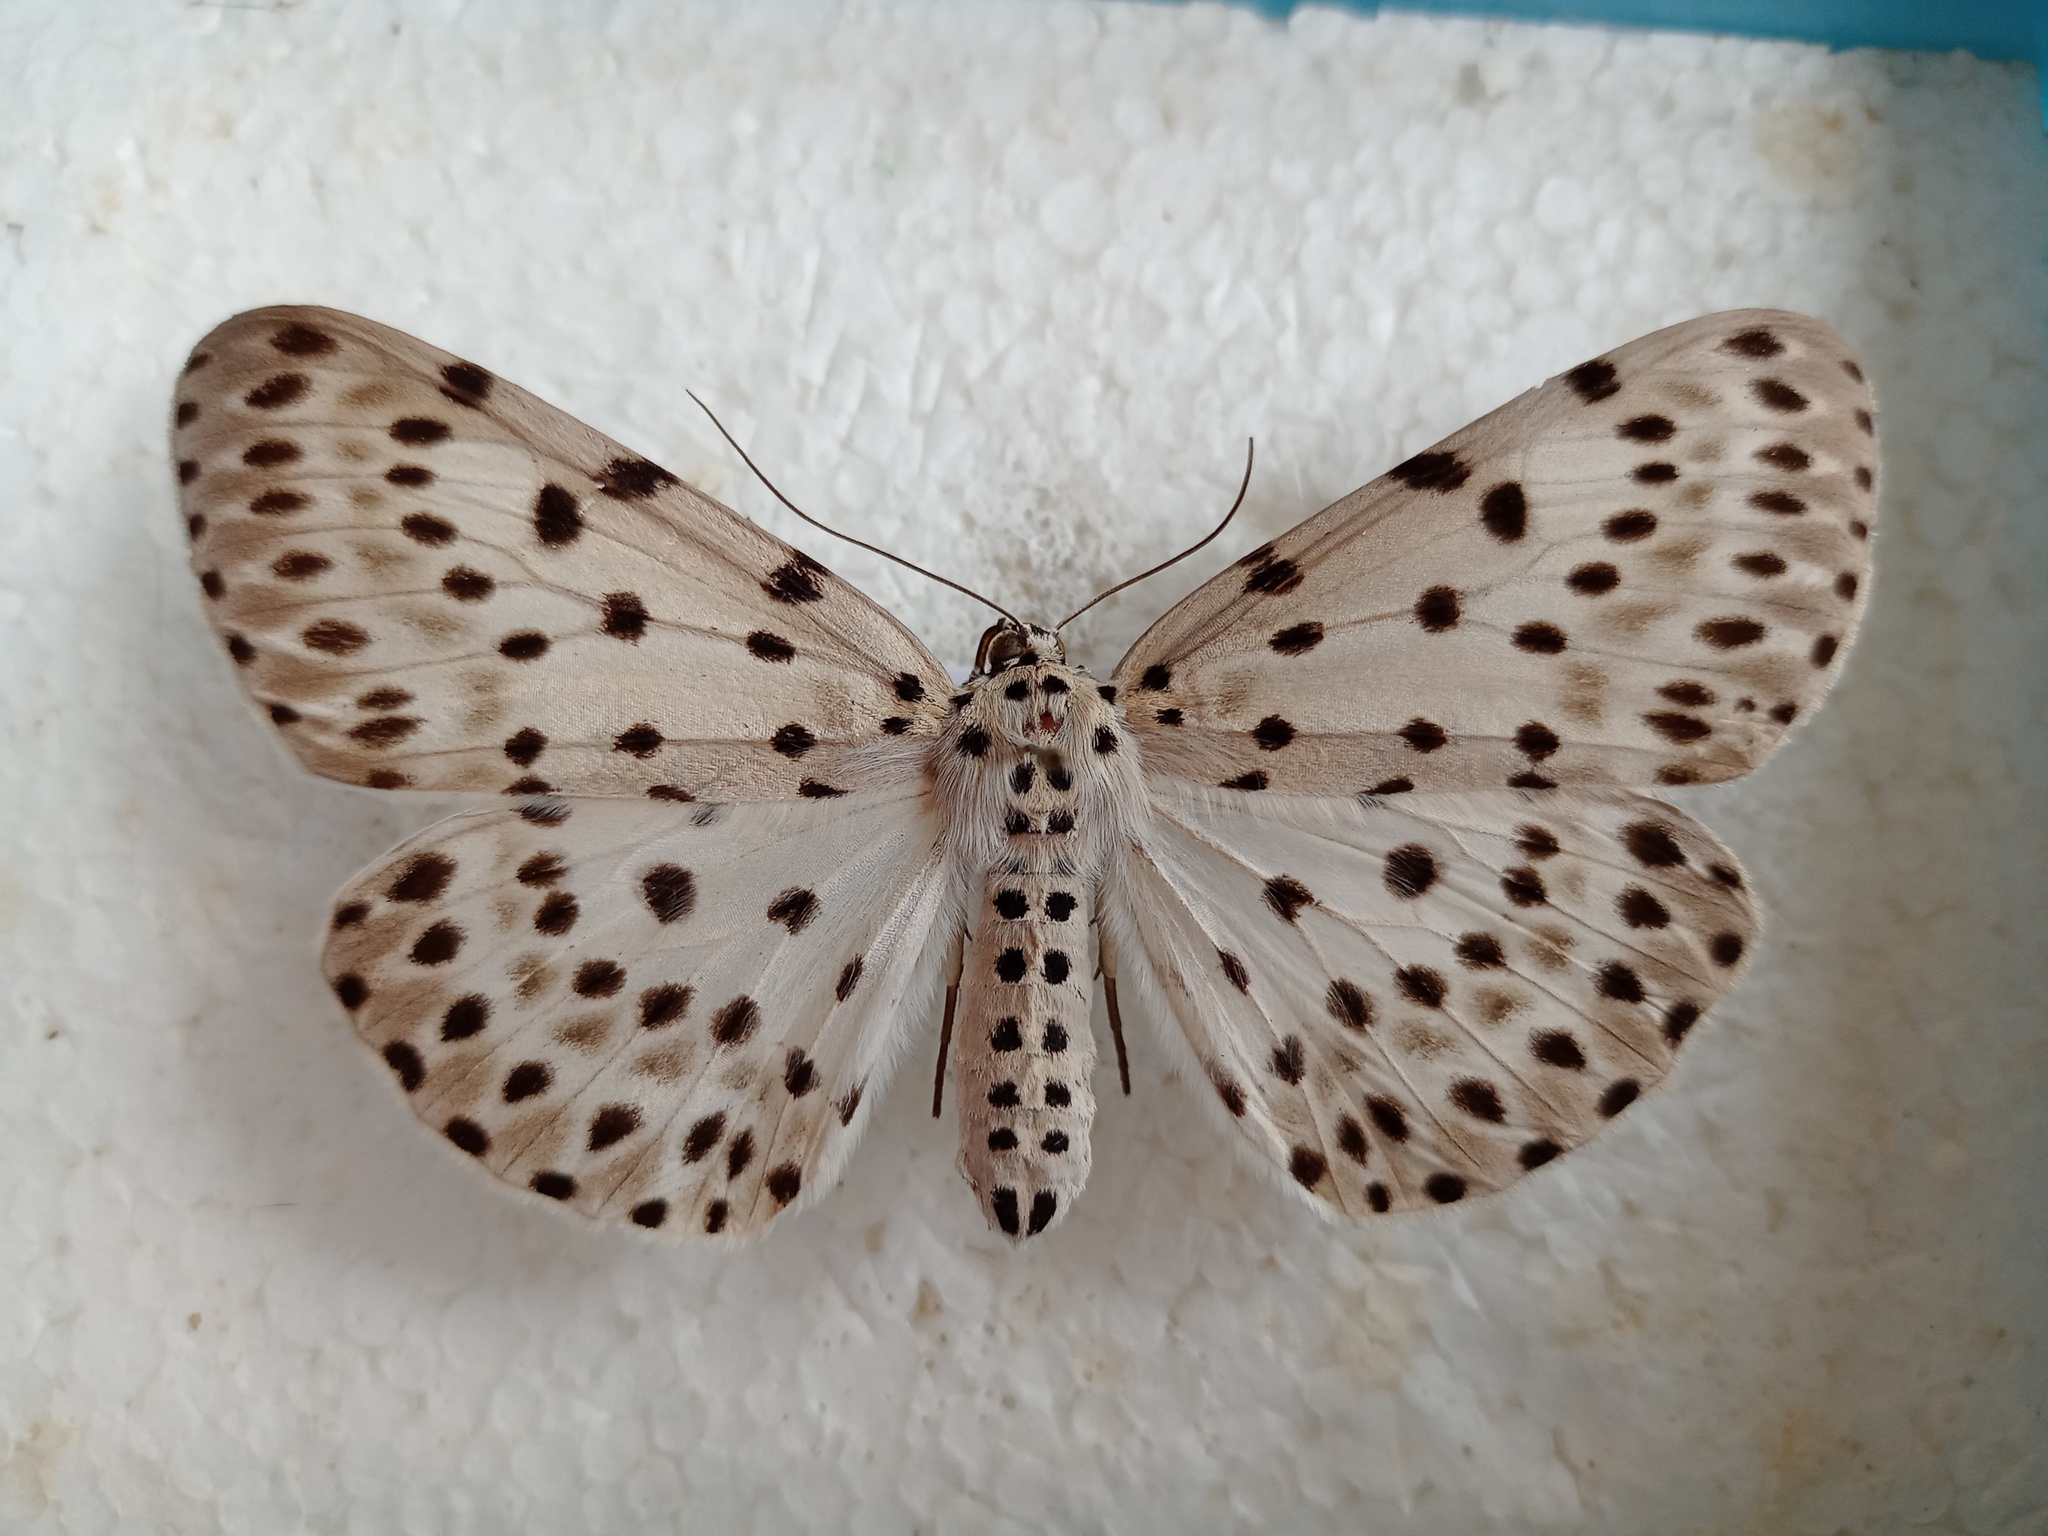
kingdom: Animalia
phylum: Arthropoda
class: Insecta
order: Lepidoptera
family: Geometridae
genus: Percnia
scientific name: Percnia felinaria
